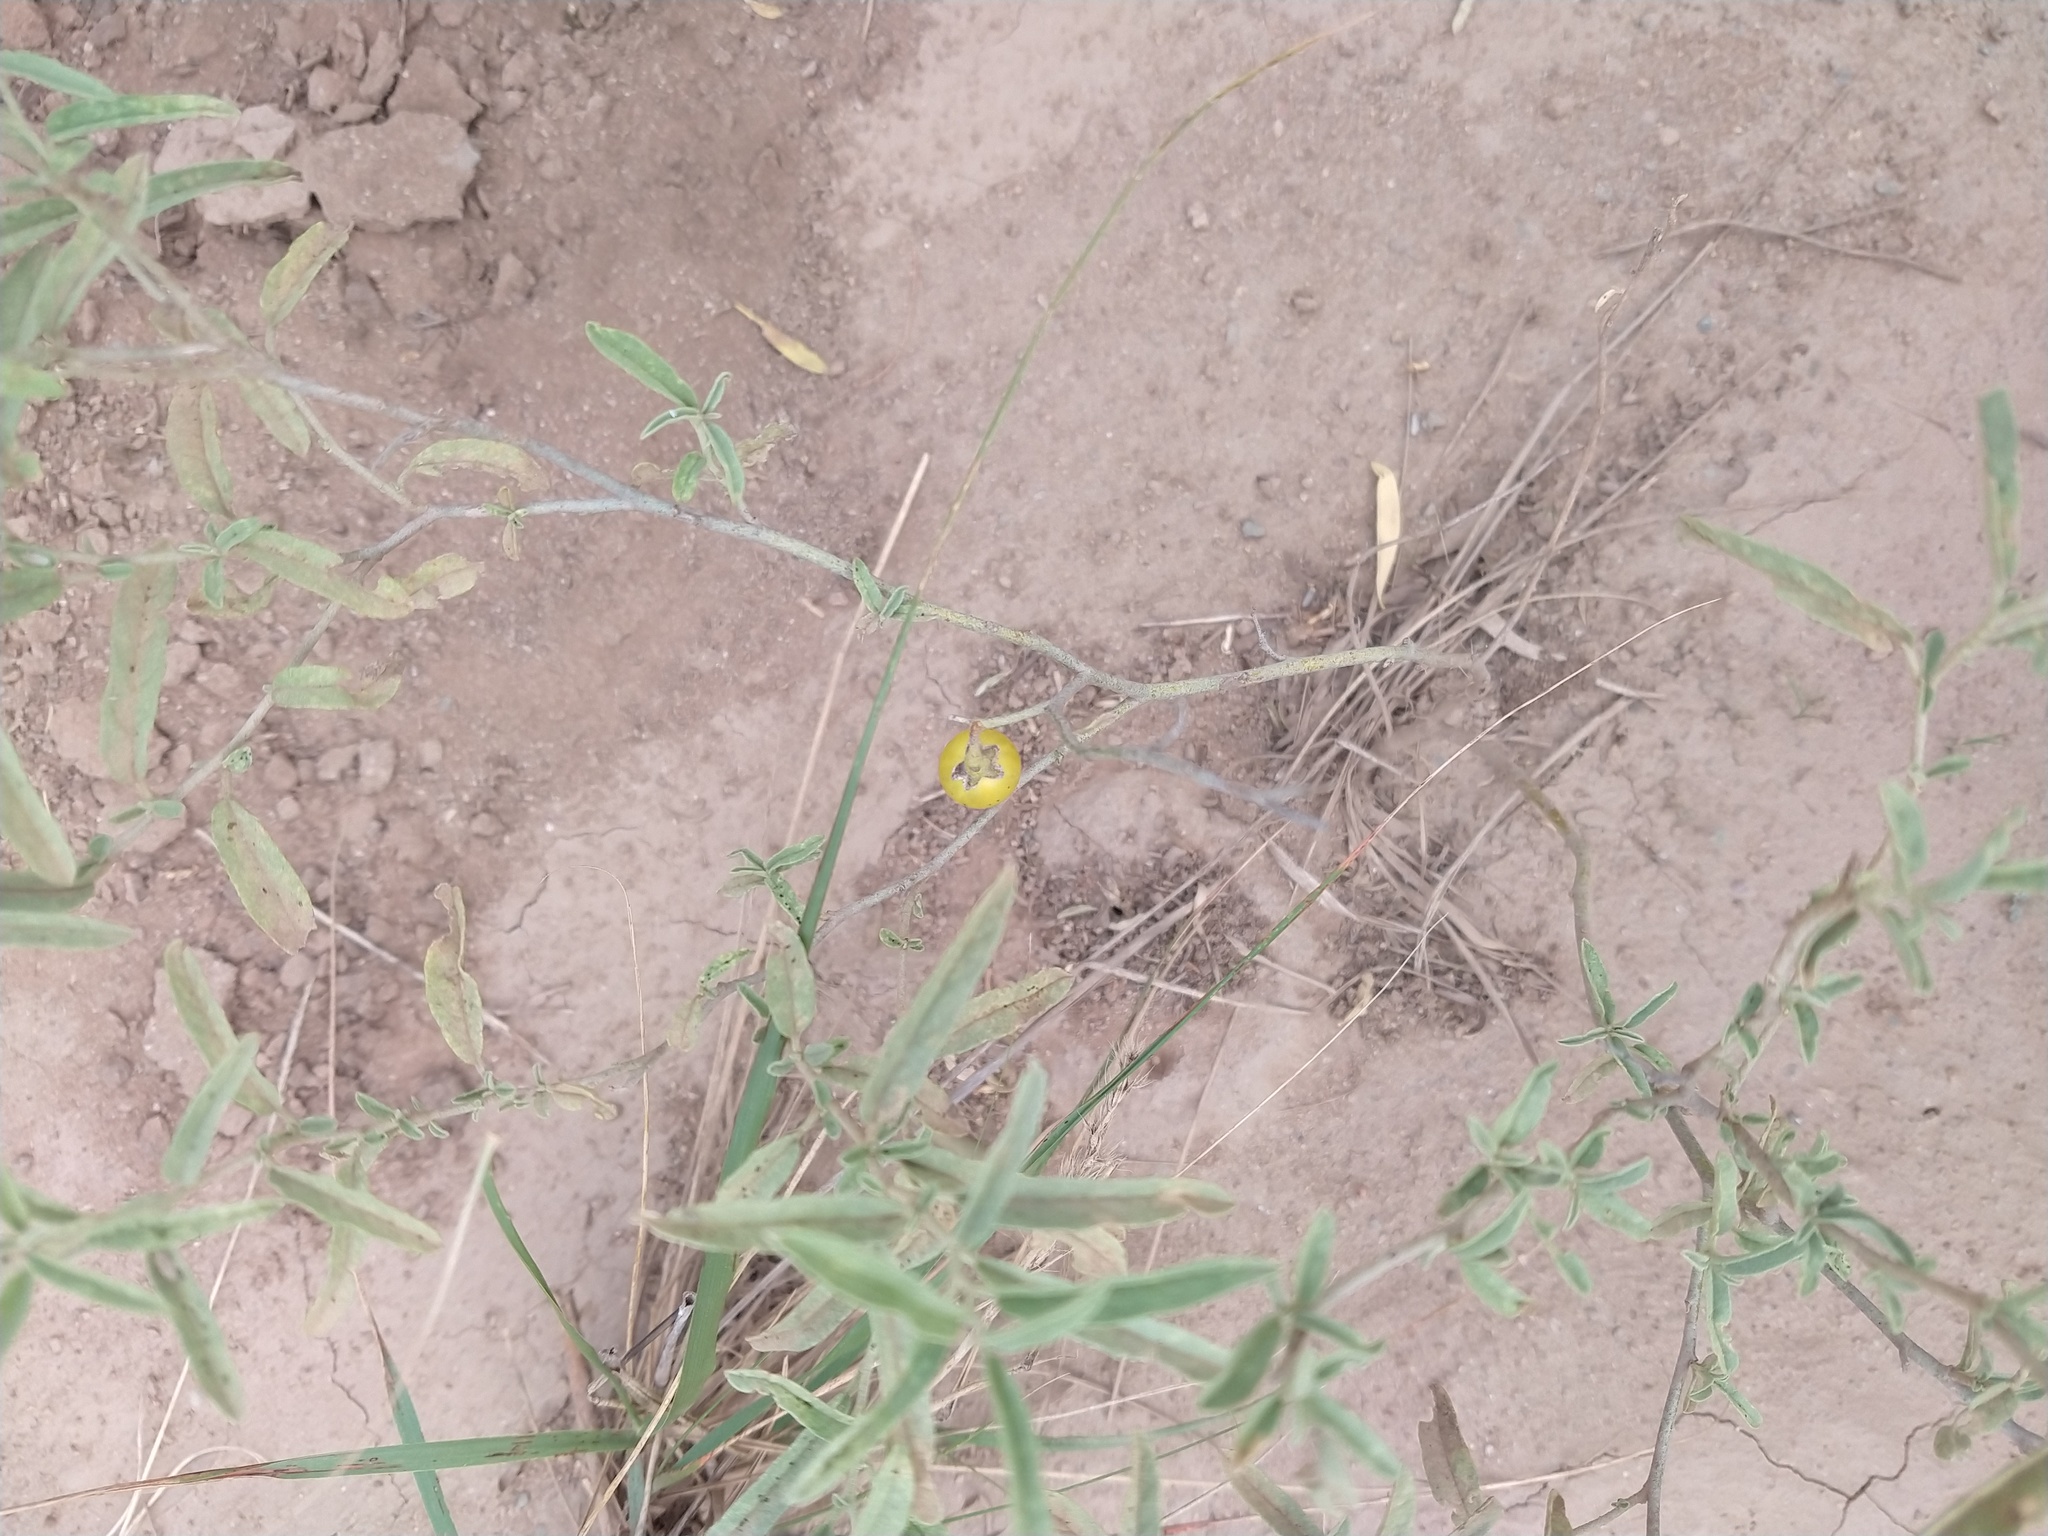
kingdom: Plantae
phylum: Tracheophyta
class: Magnoliopsida
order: Solanales
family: Solanaceae
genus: Solanum
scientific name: Solanum elaeagnifolium
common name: Silverleaf nightshade
